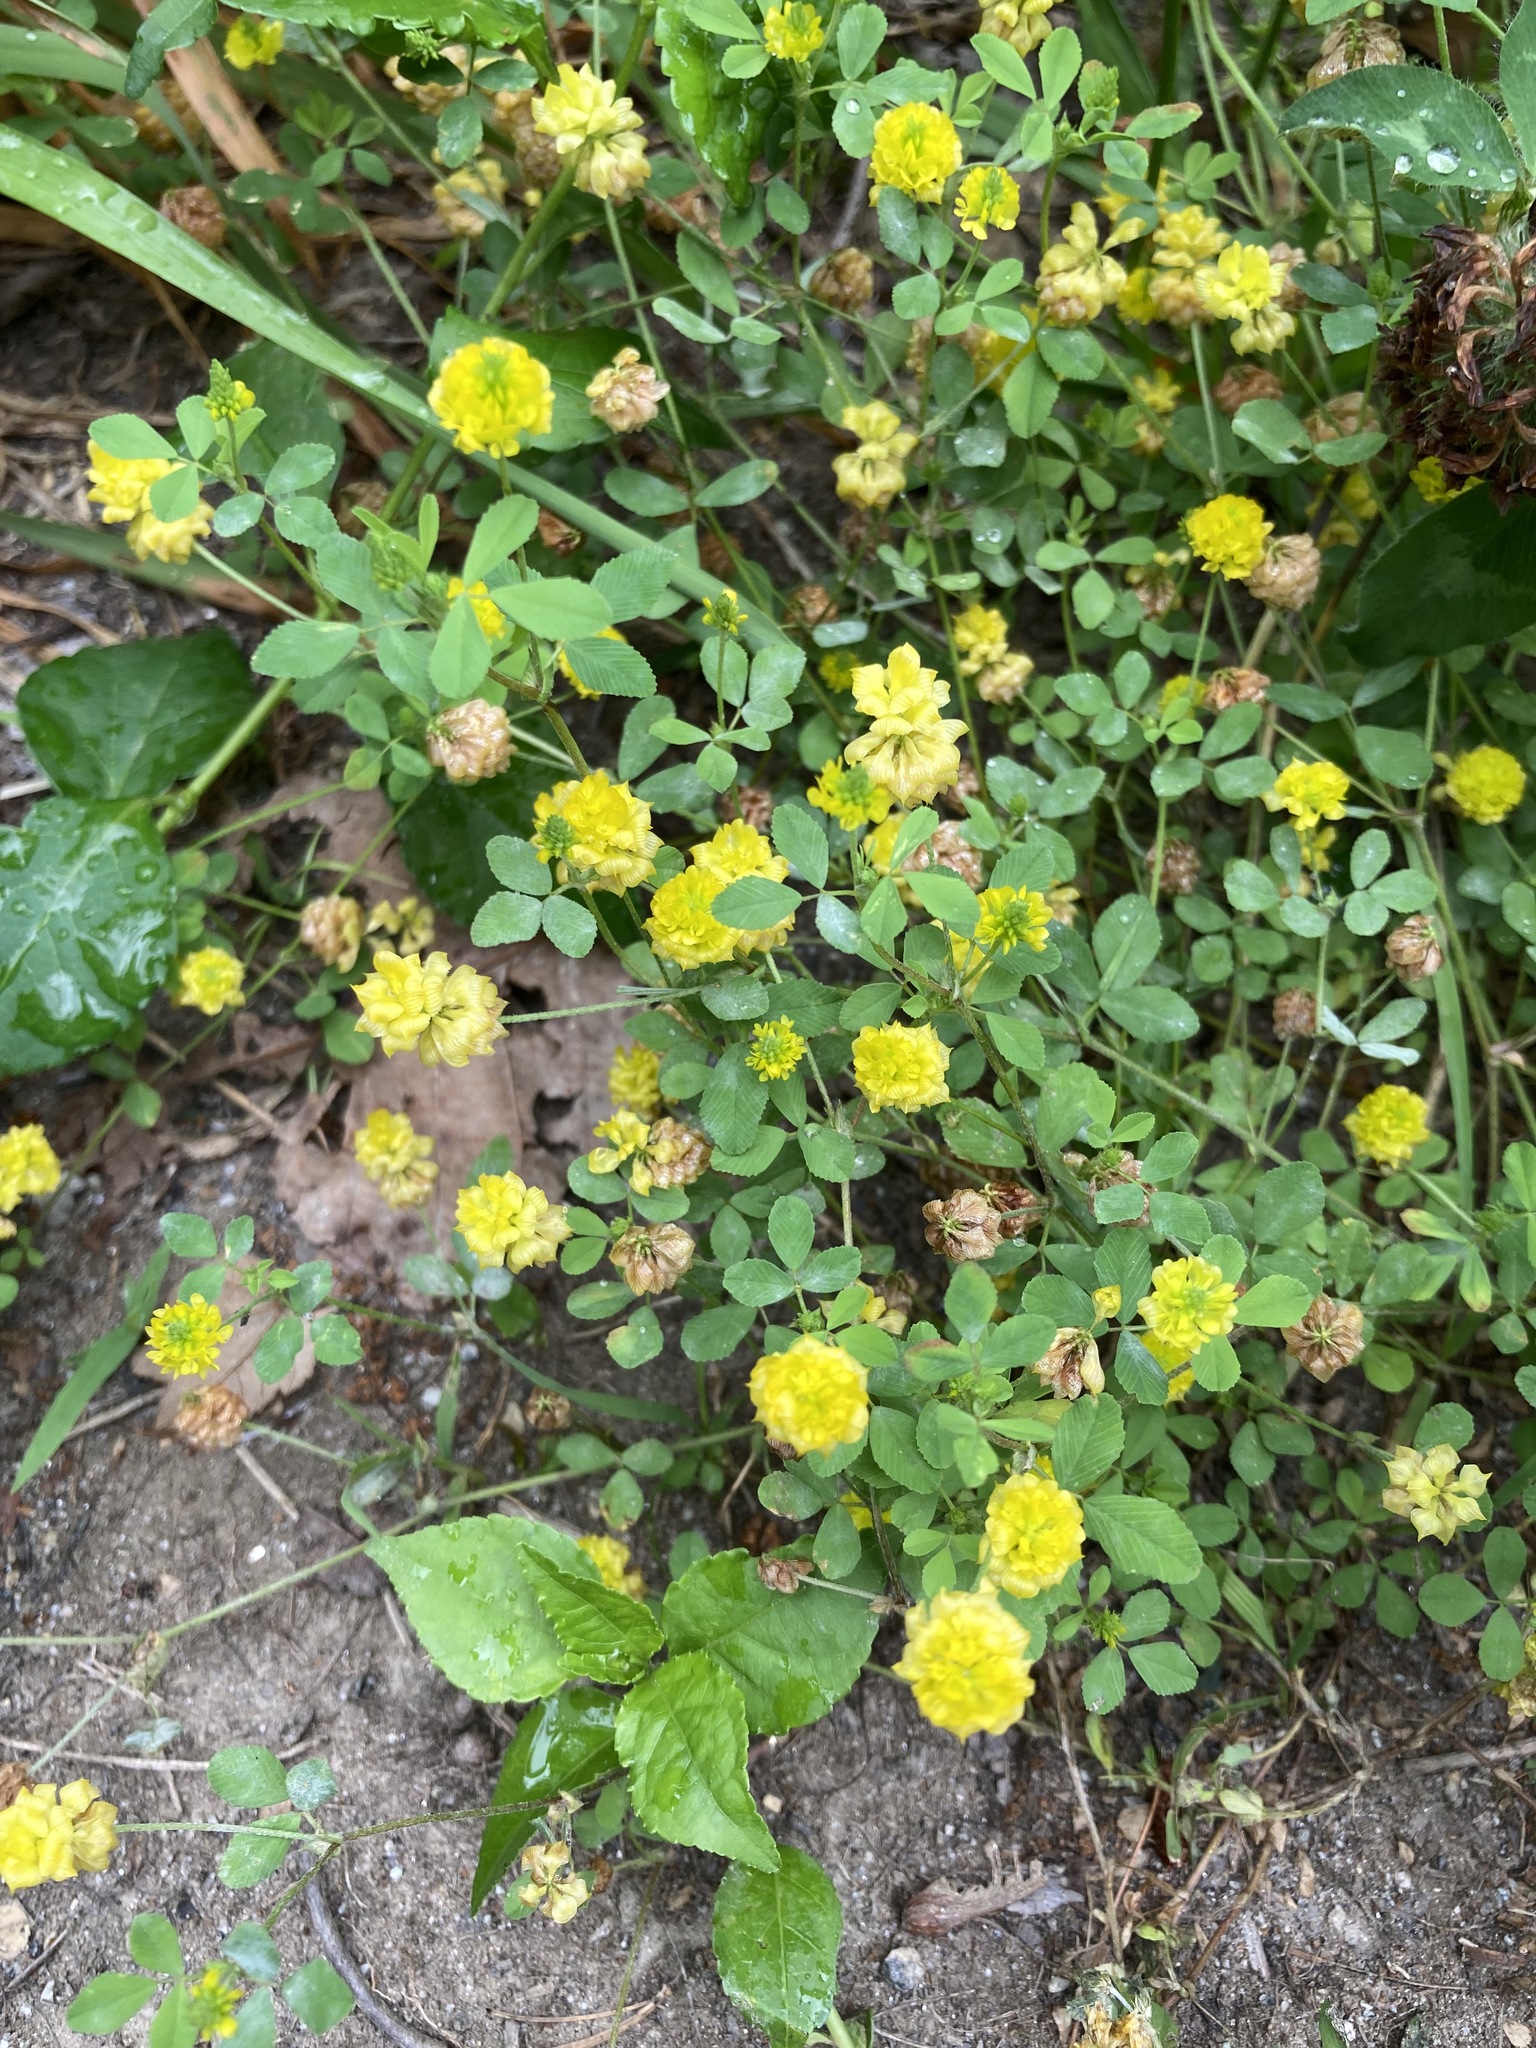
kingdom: Plantae
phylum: Tracheophyta
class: Magnoliopsida
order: Fabales
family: Fabaceae
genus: Trifolium
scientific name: Trifolium campestre
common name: Field clover
